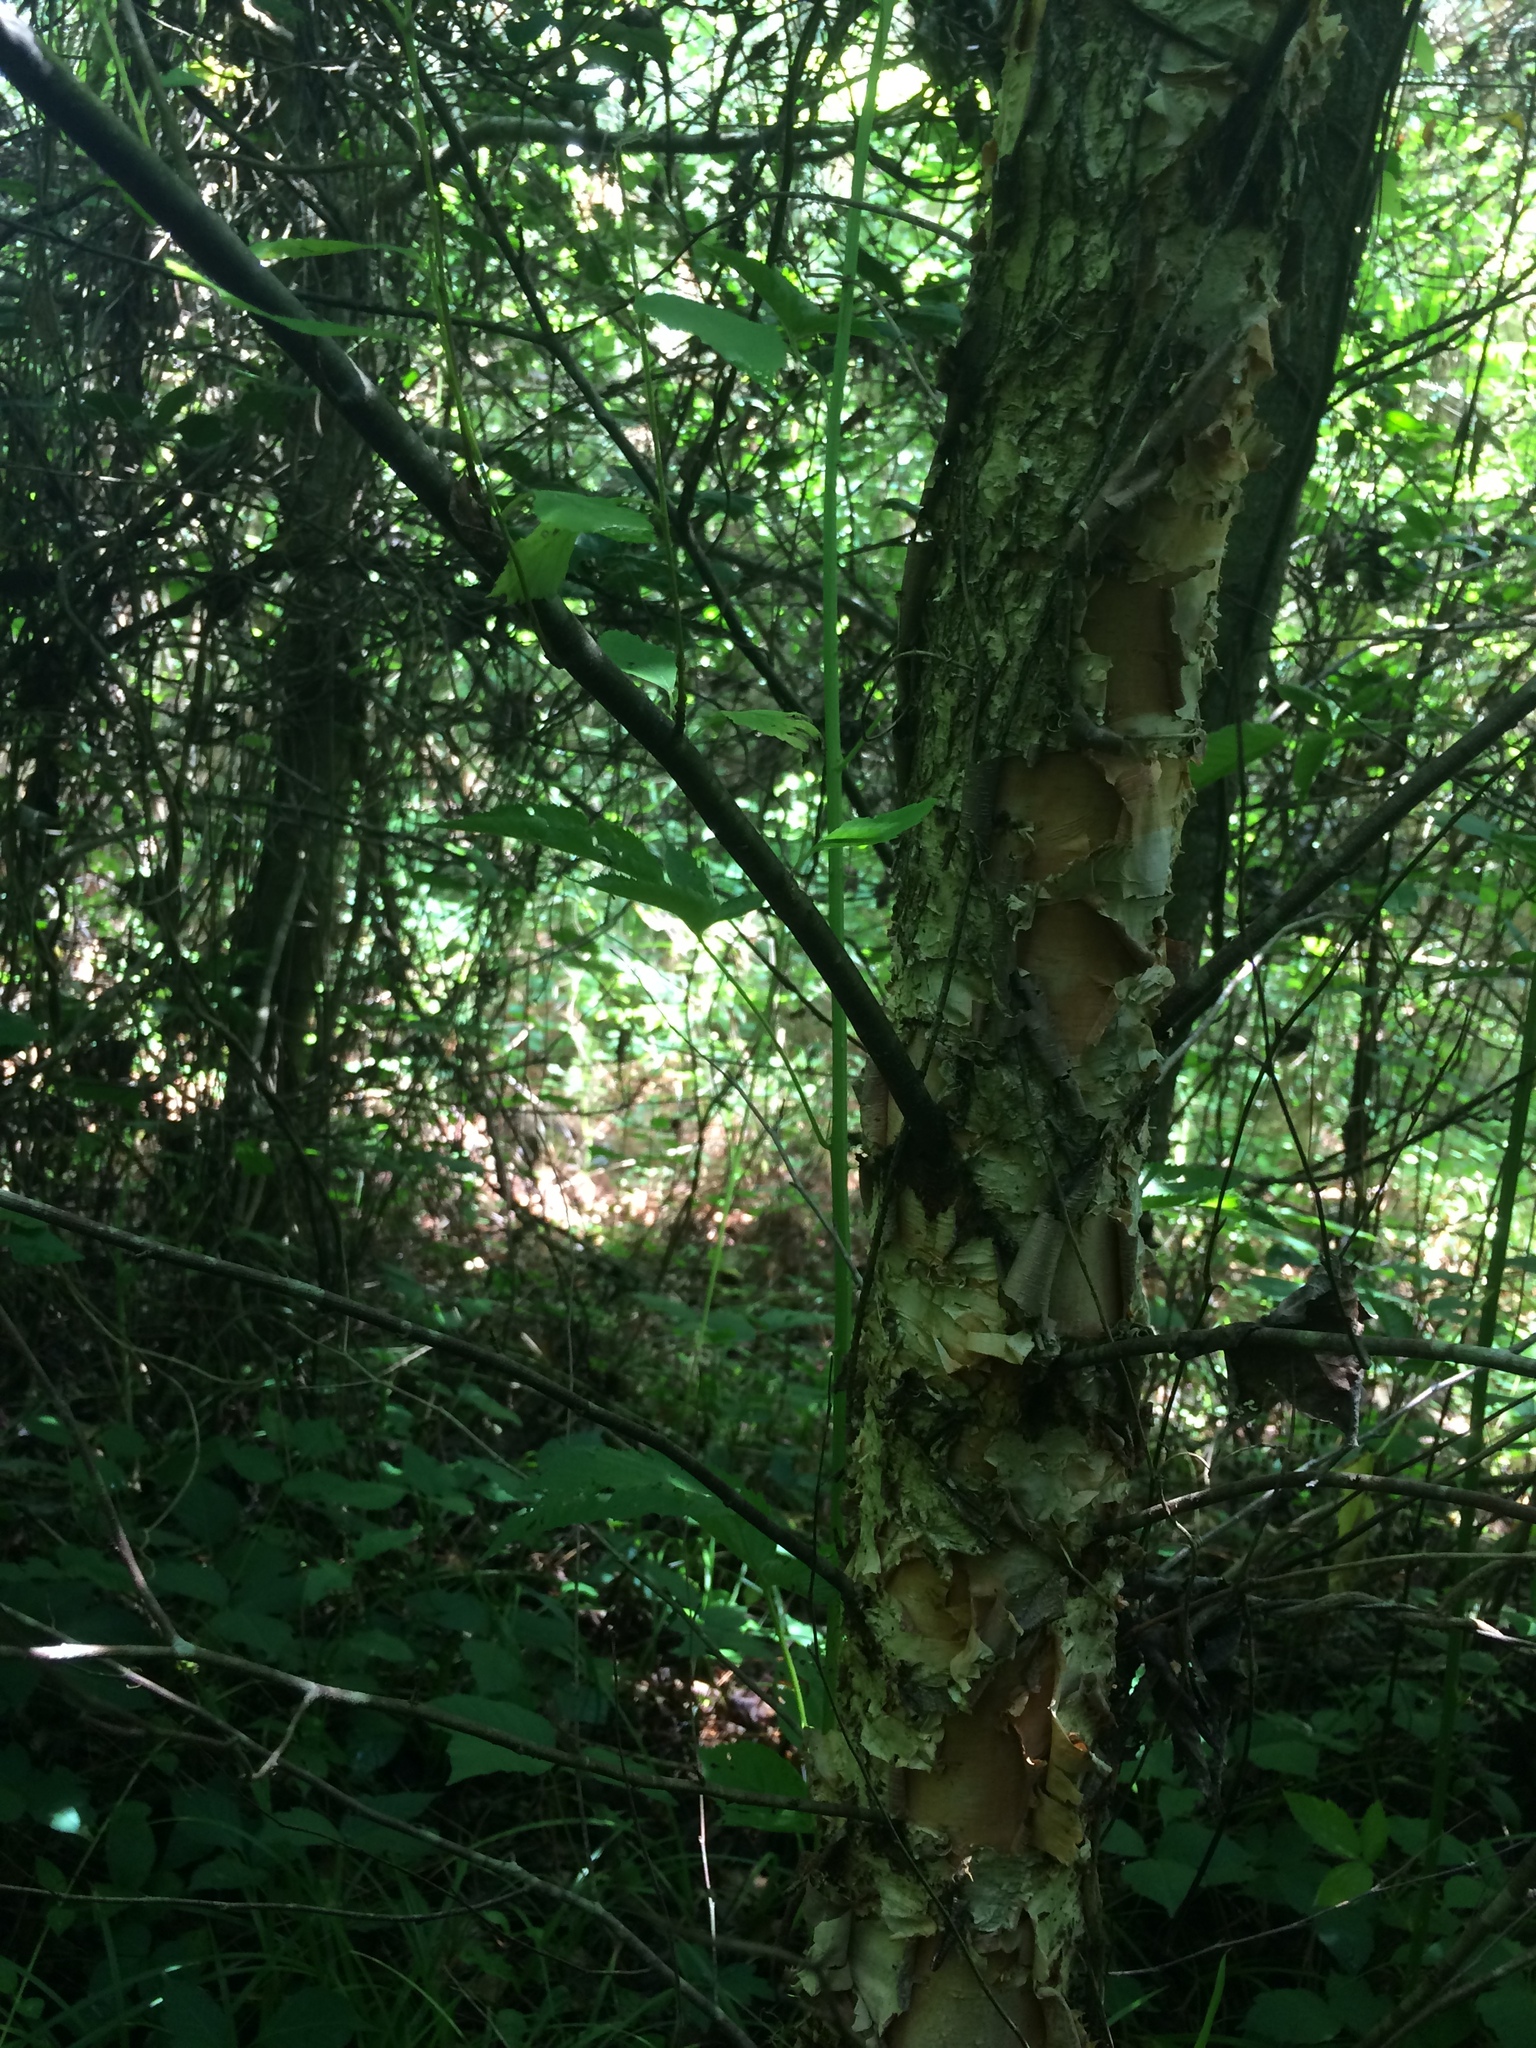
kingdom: Plantae
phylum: Tracheophyta
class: Magnoliopsida
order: Fagales
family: Betulaceae
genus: Betula
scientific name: Betula nigra
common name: Black birch
